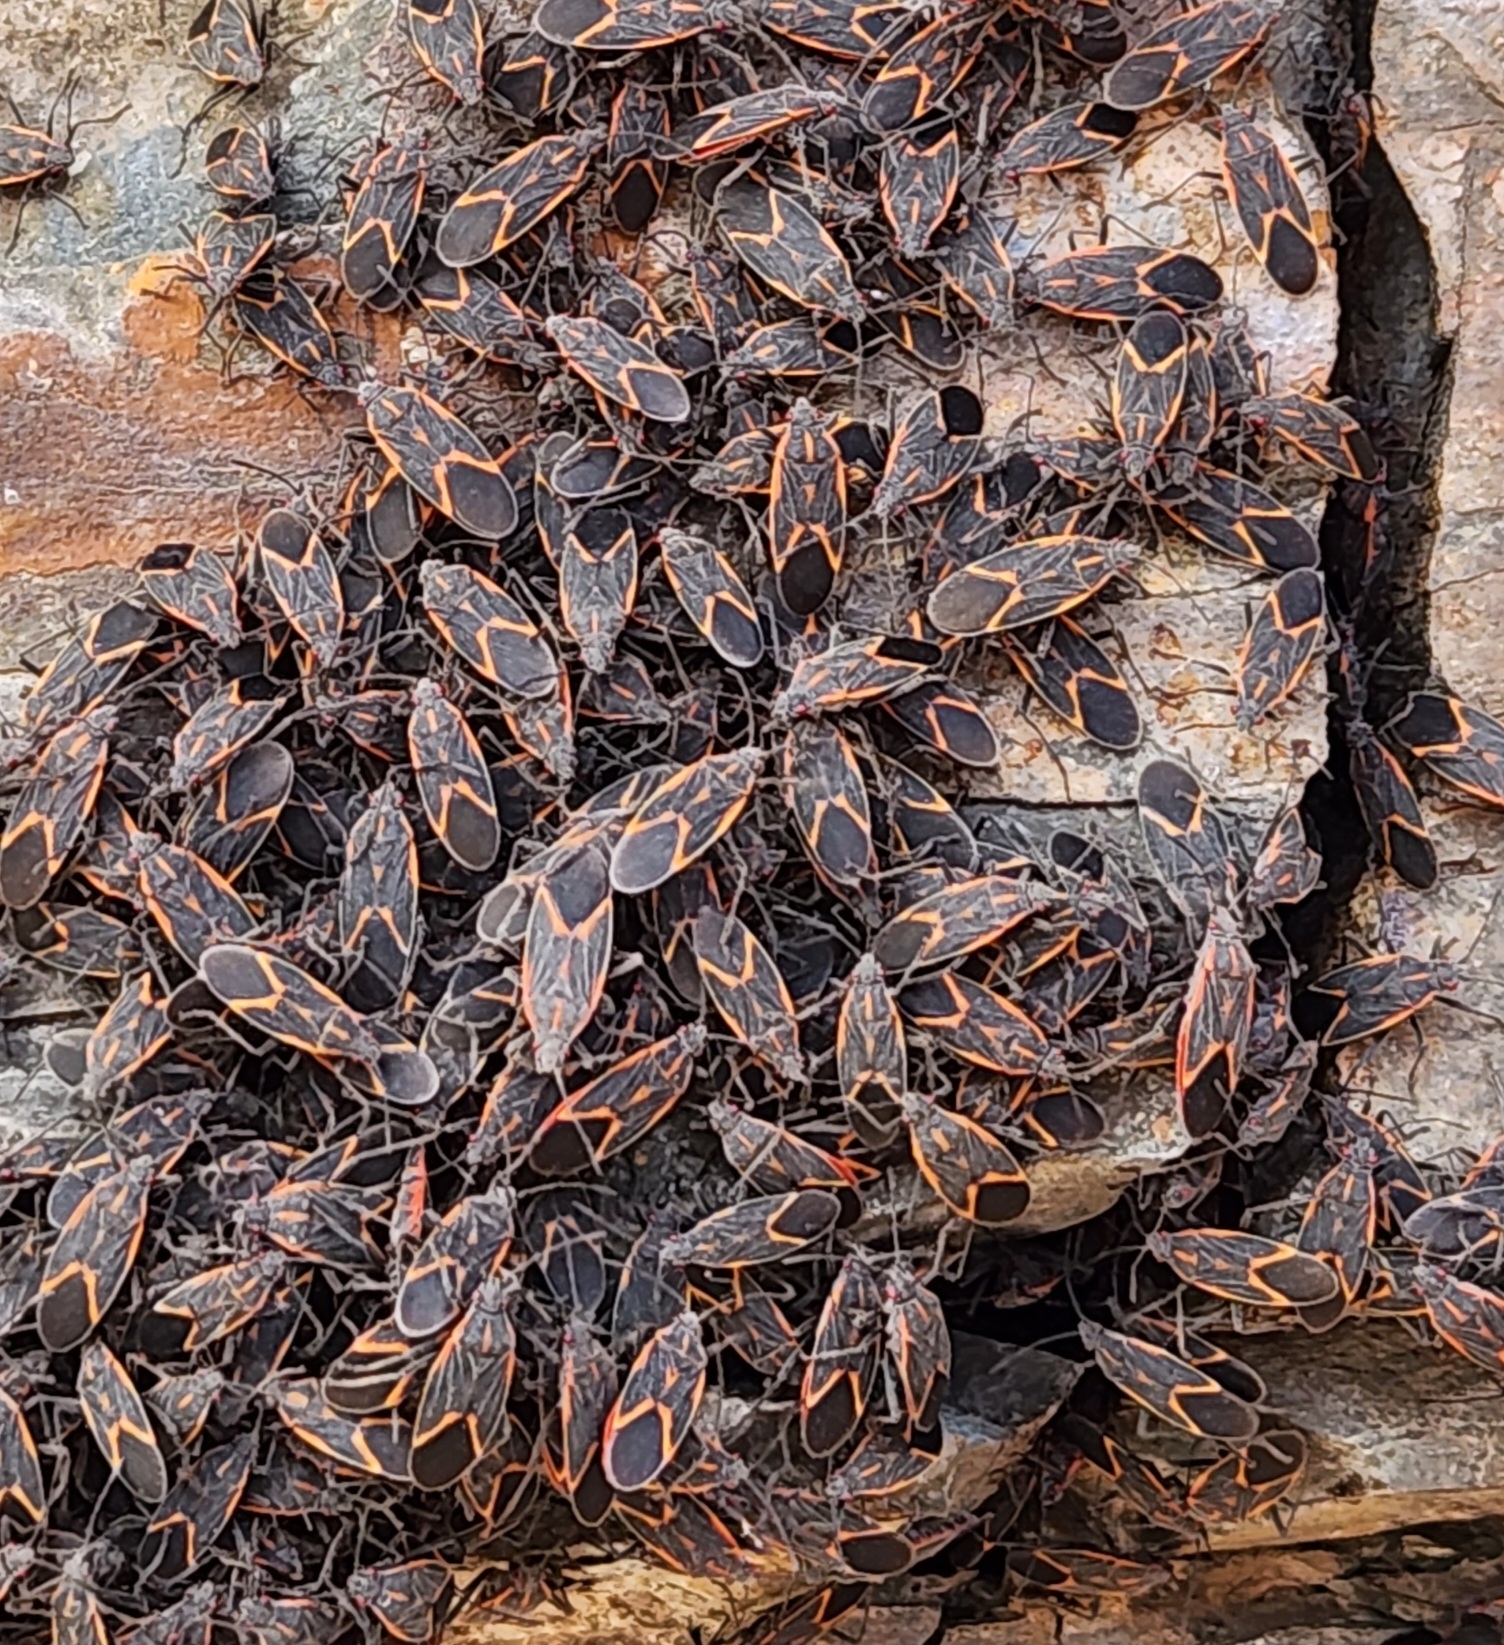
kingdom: Animalia
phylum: Arthropoda
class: Insecta
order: Hemiptera
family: Rhopalidae
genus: Boisea
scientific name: Boisea trivittata
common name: Boxelder bug
